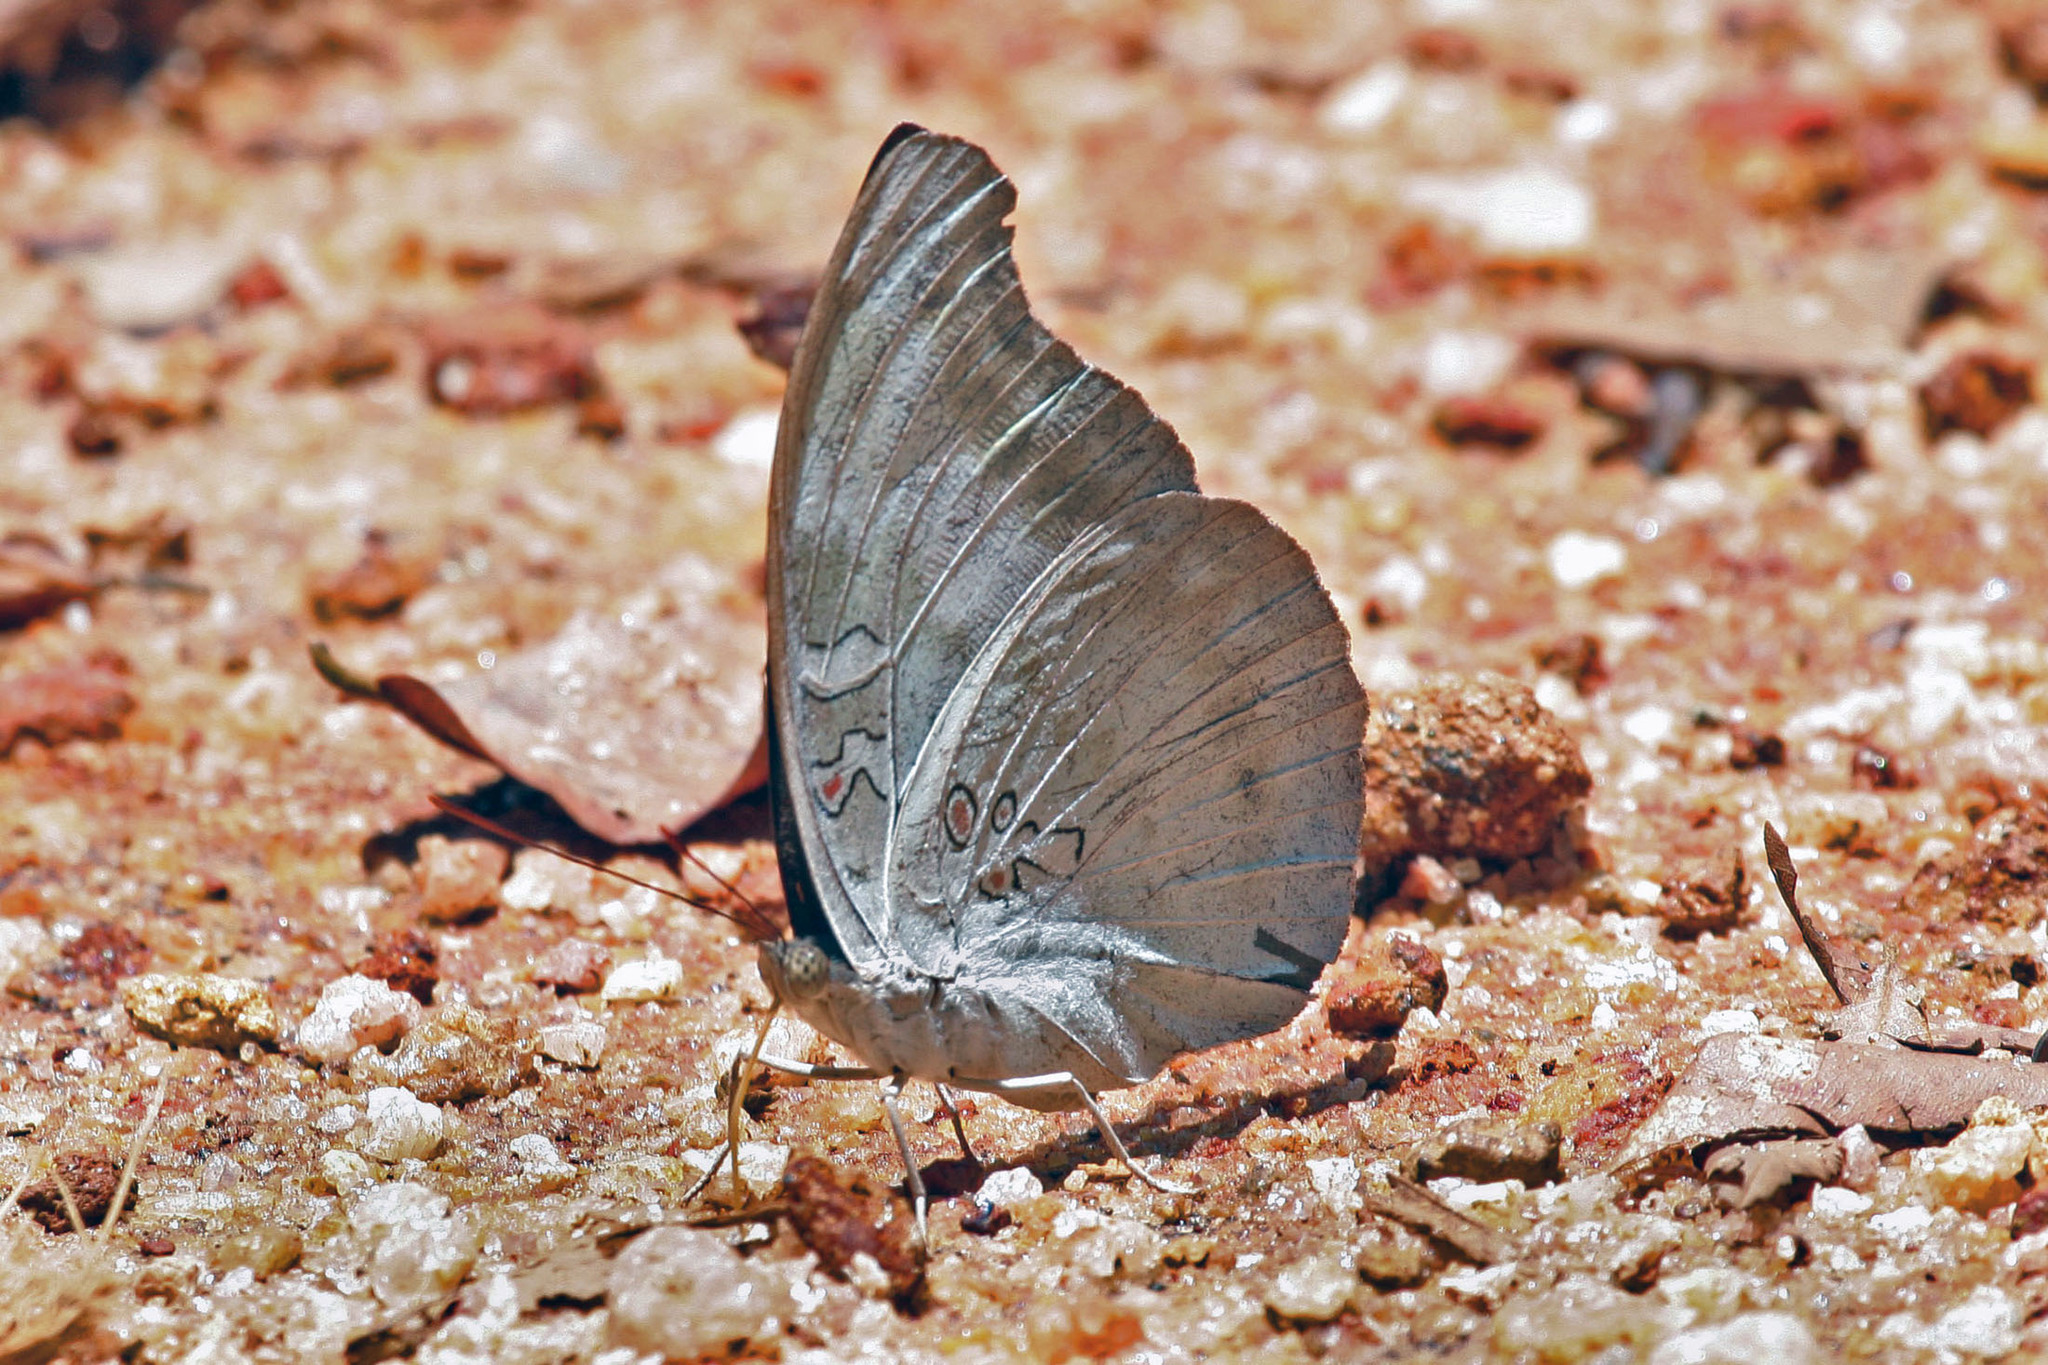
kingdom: Animalia
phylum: Arthropoda
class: Insecta
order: Lepidoptera
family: Nymphalidae
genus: Euthalia
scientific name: Euthalia Dophla evelina
